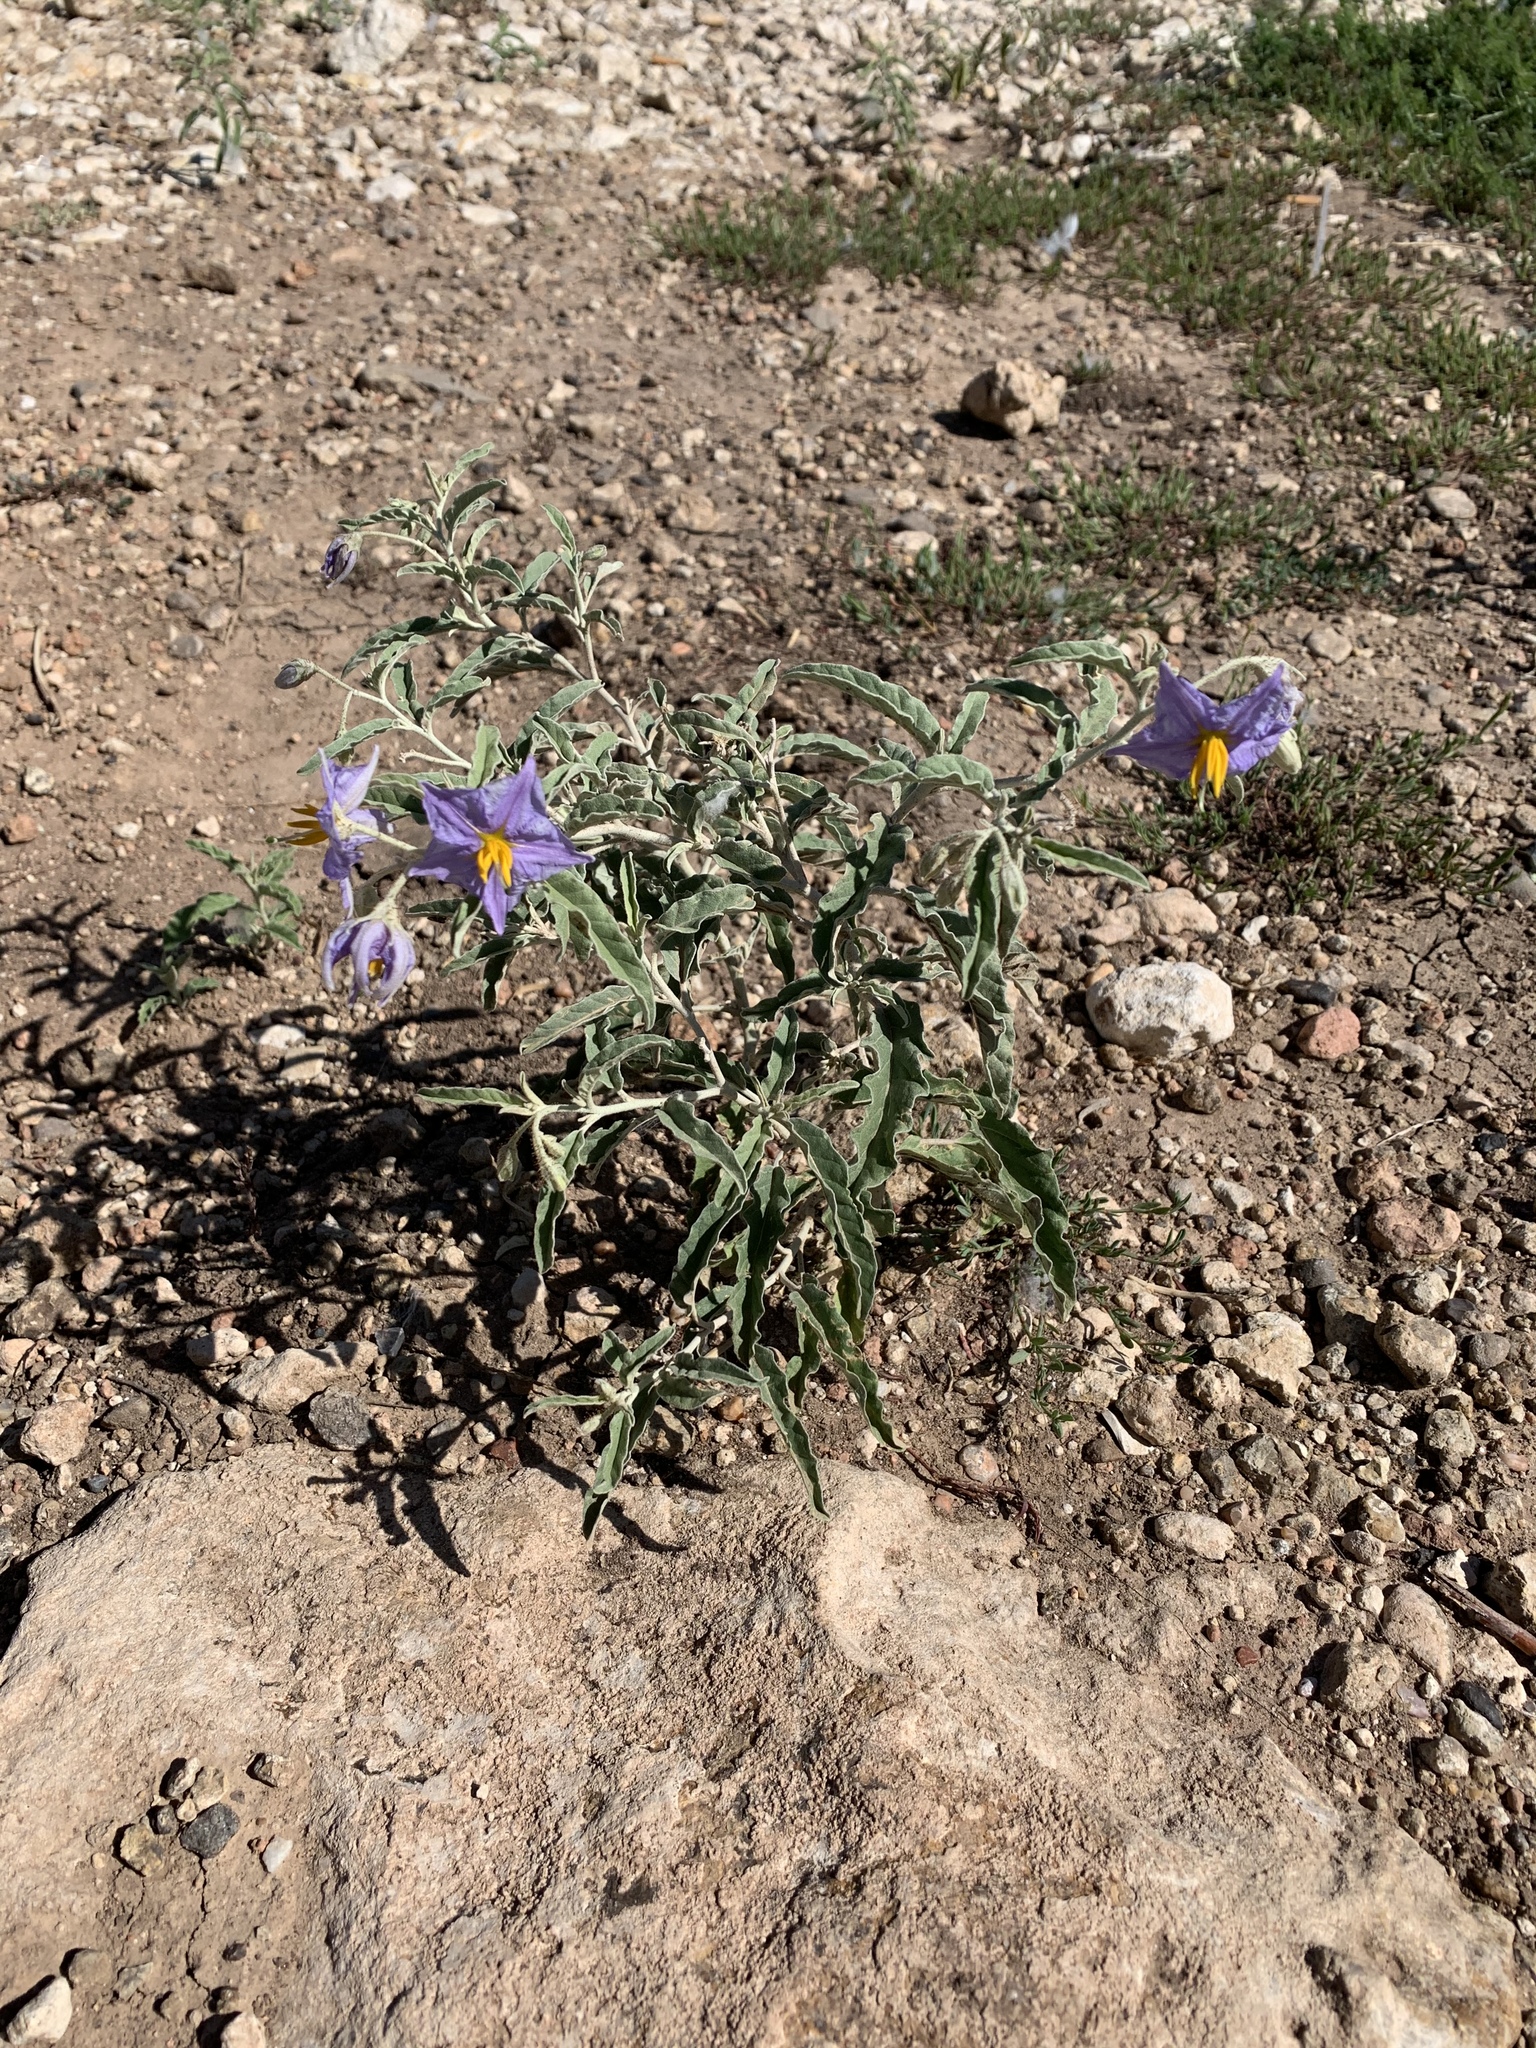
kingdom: Plantae
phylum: Tracheophyta
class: Magnoliopsida
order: Solanales
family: Solanaceae
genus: Solanum
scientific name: Solanum elaeagnifolium
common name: Silverleaf nightshade
